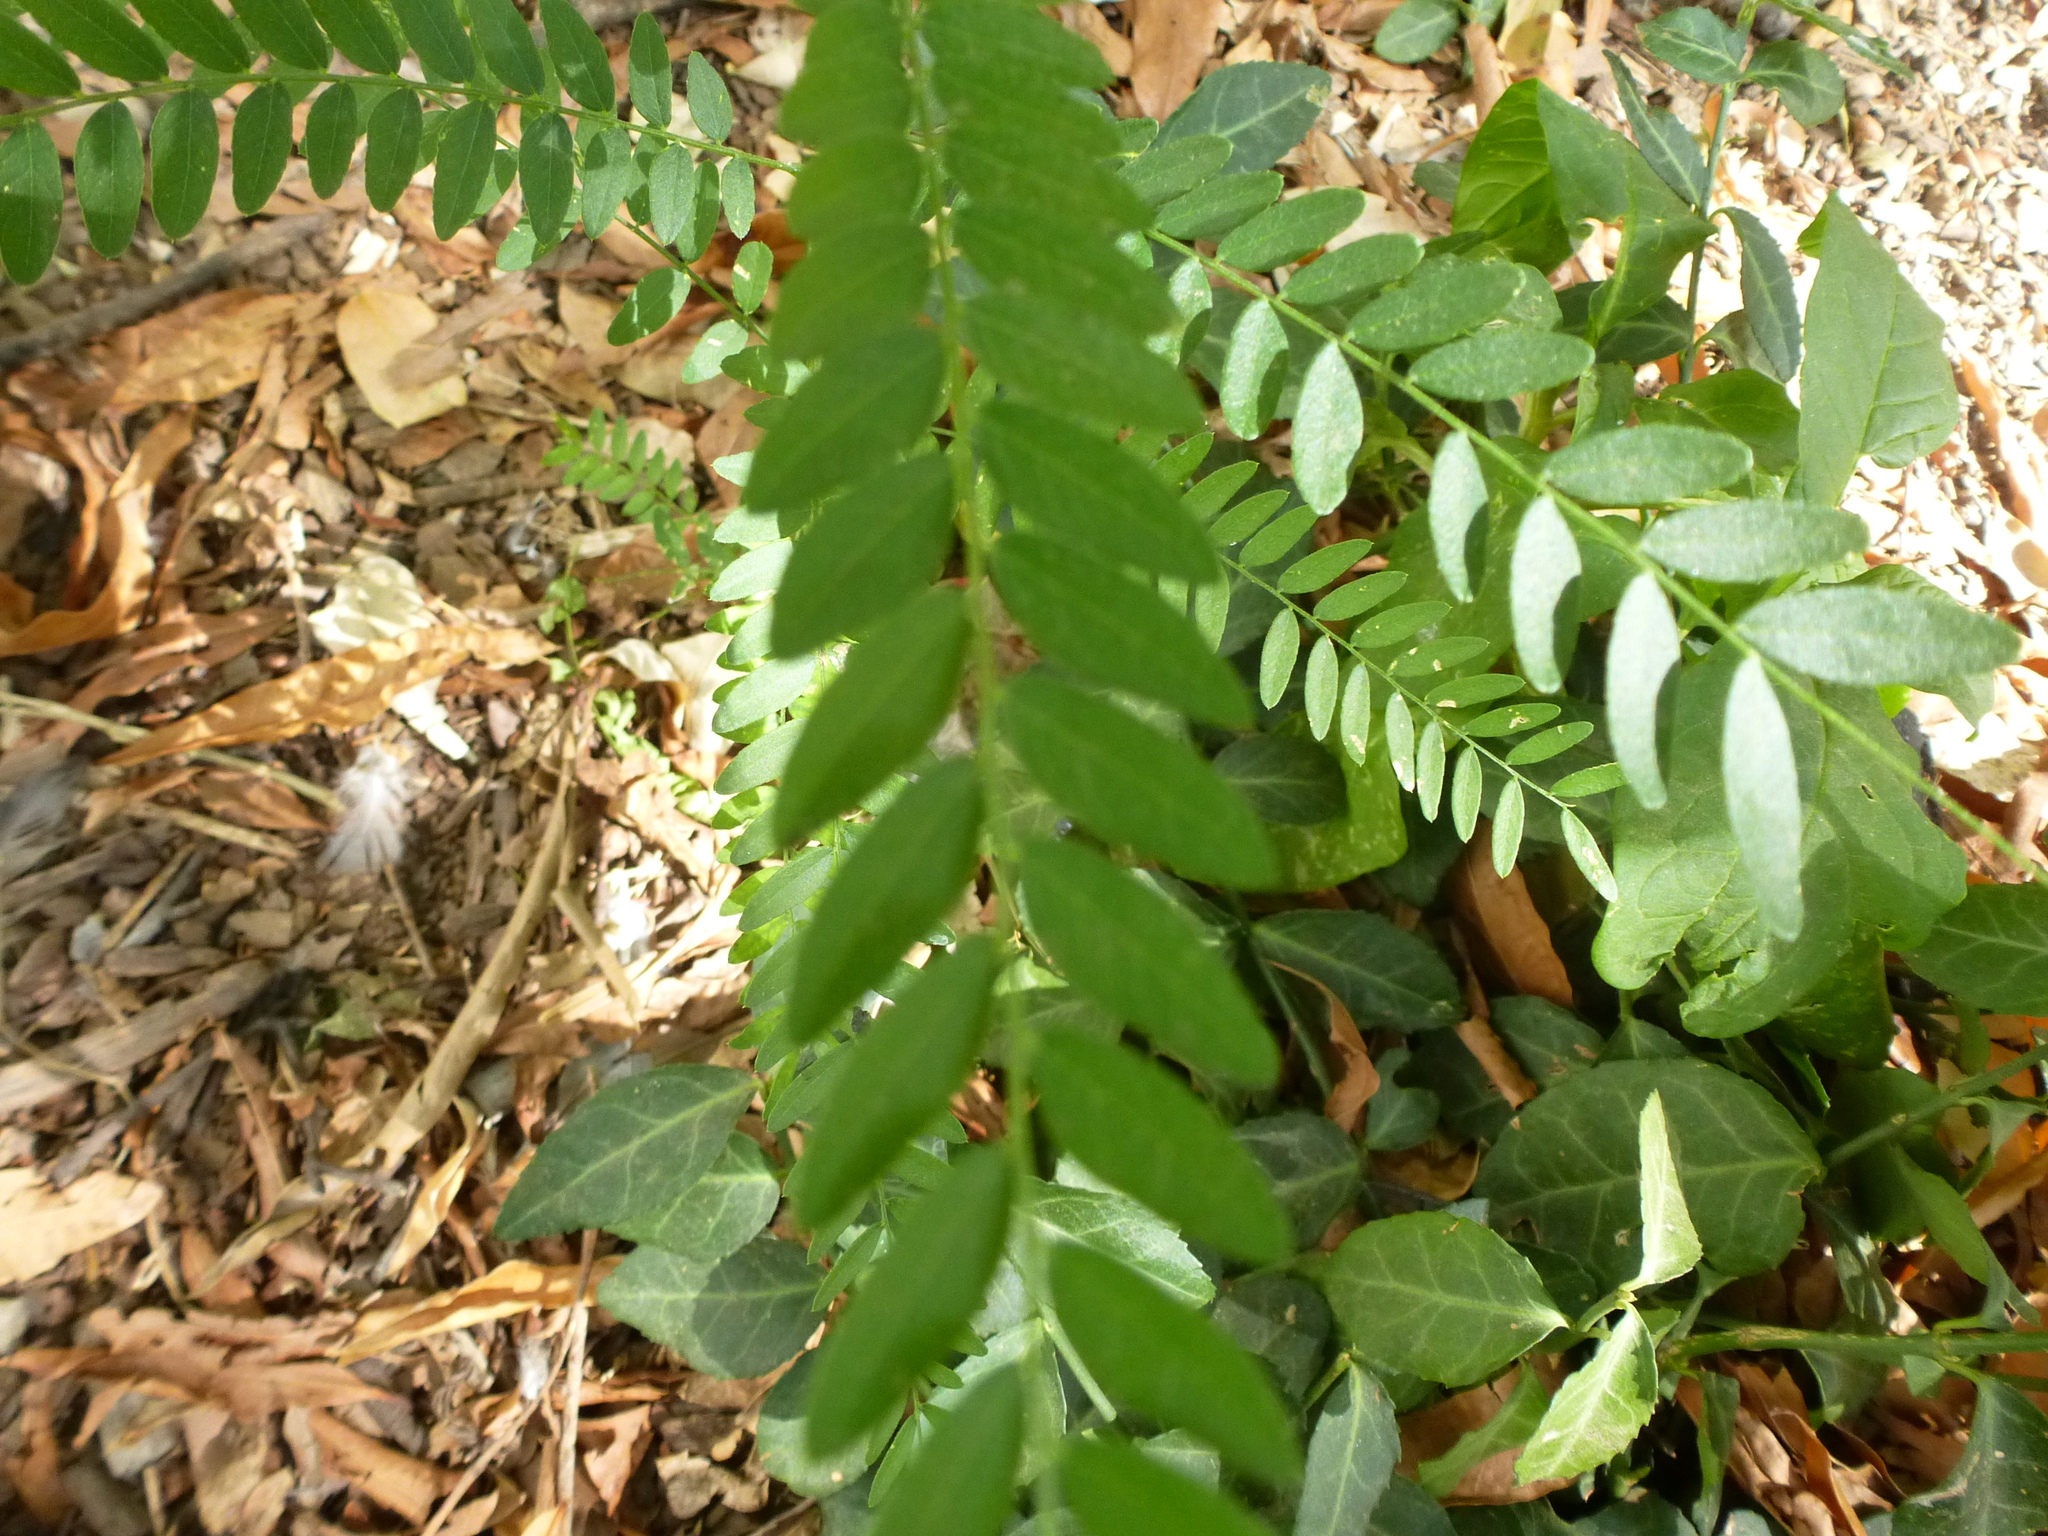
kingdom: Plantae
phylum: Tracheophyta
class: Magnoliopsida
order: Fabales
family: Fabaceae
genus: Gleditsia
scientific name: Gleditsia triacanthos
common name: Common honeylocust
